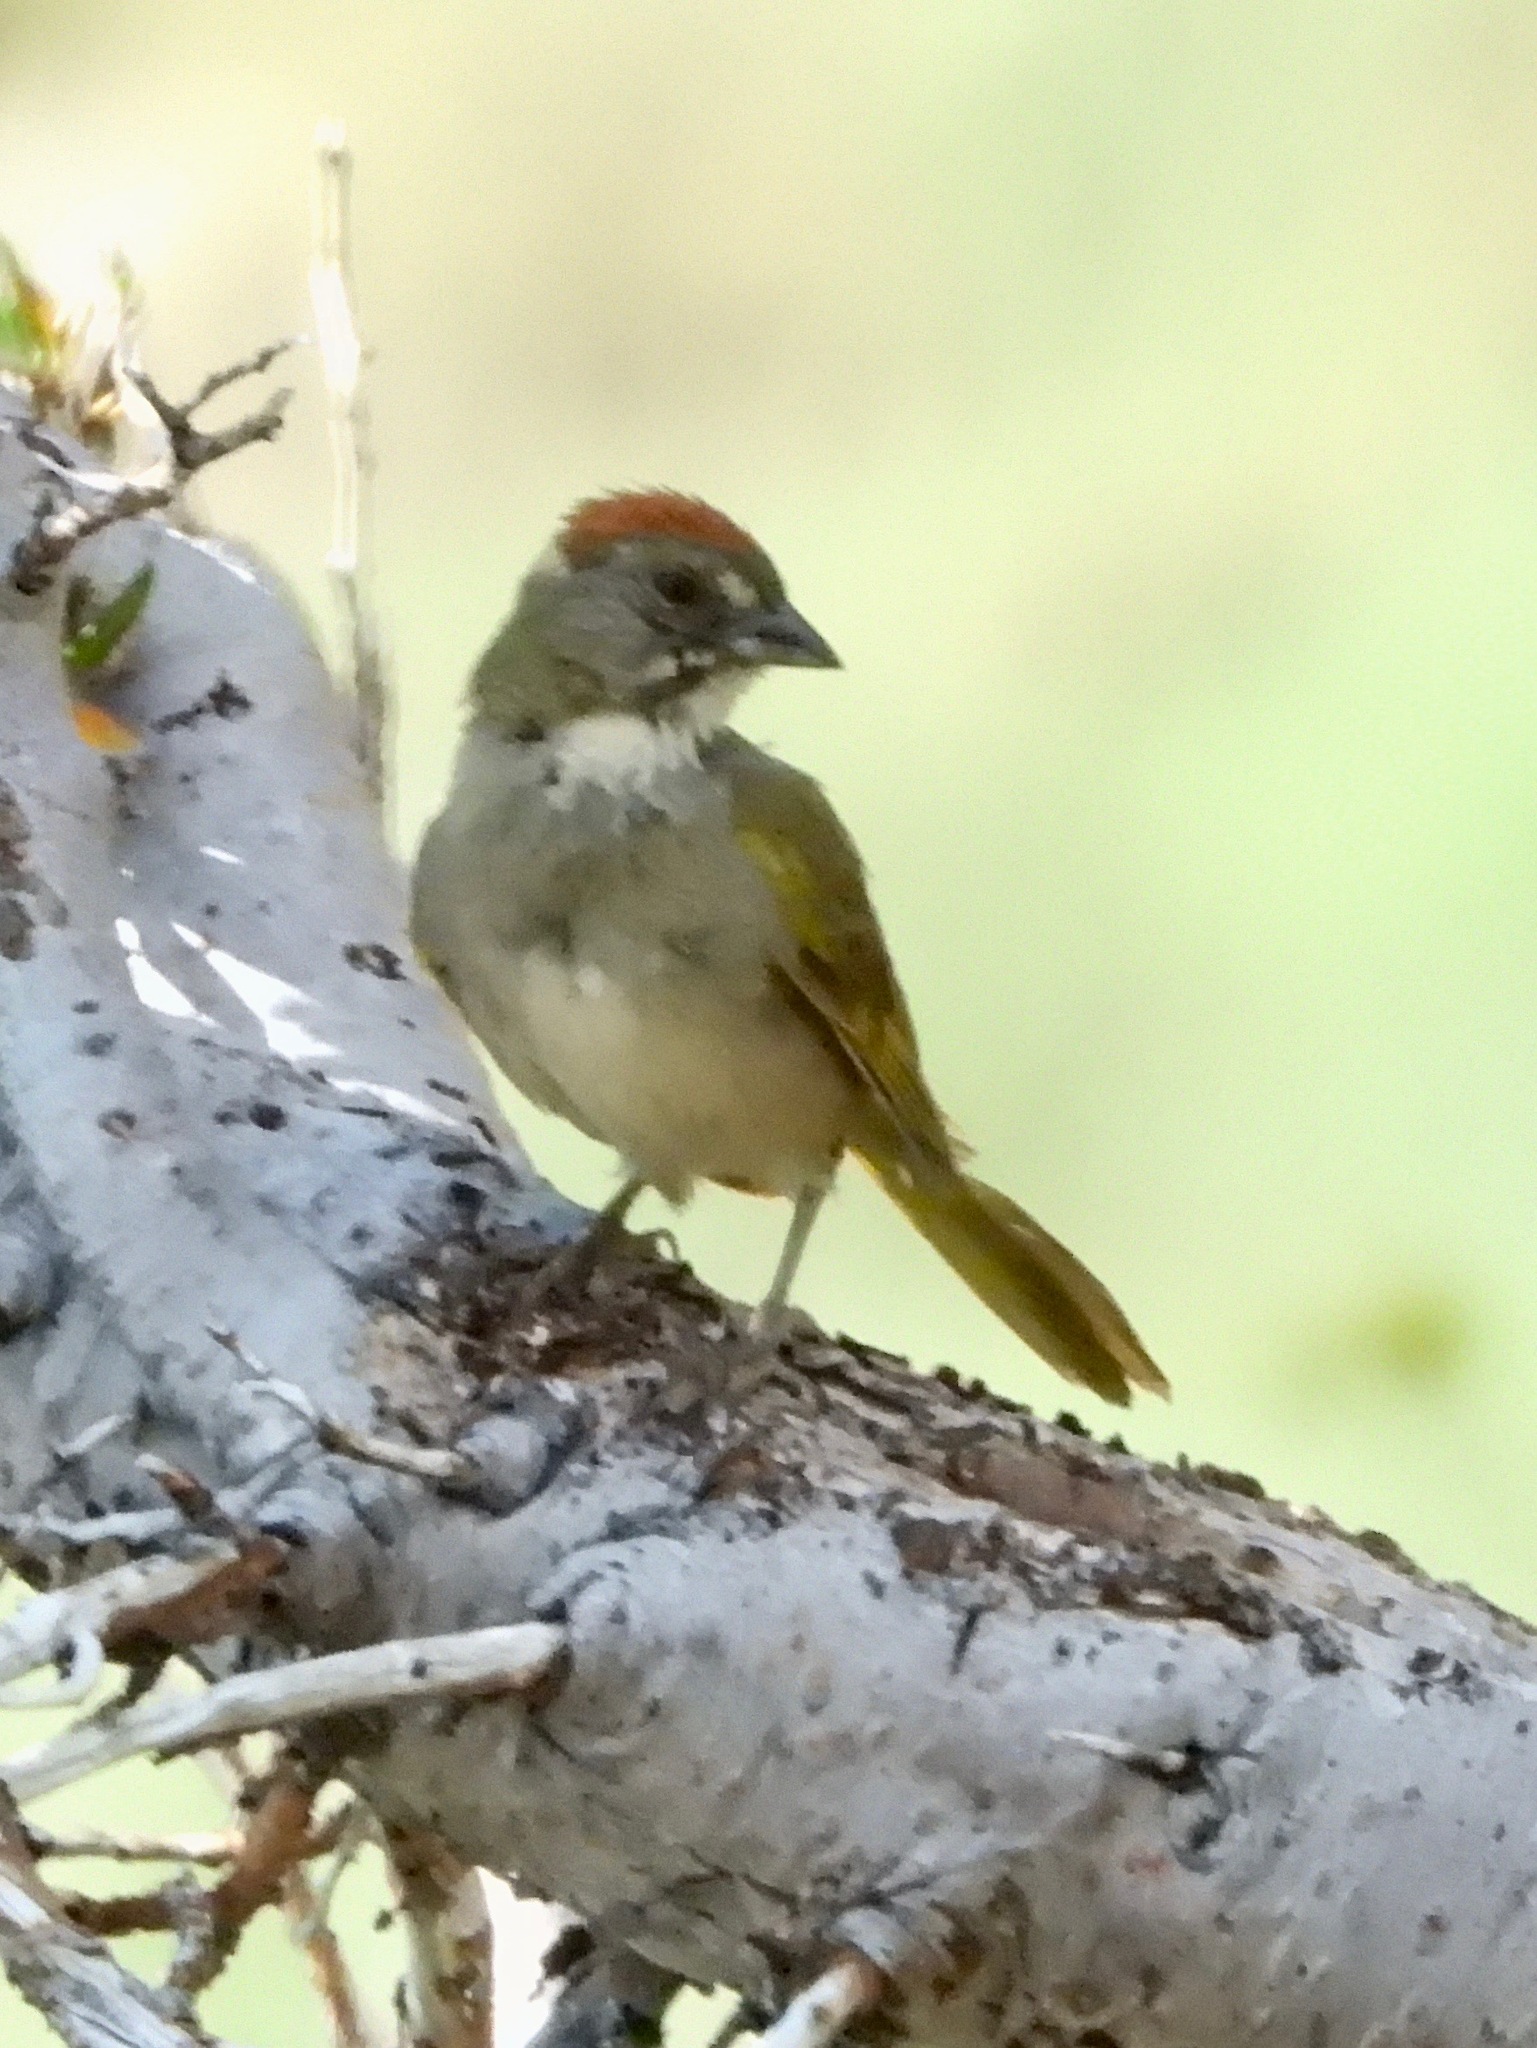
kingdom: Animalia
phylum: Chordata
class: Aves
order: Passeriformes
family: Passerellidae
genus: Pipilo
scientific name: Pipilo chlorurus
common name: Green-tailed towhee
